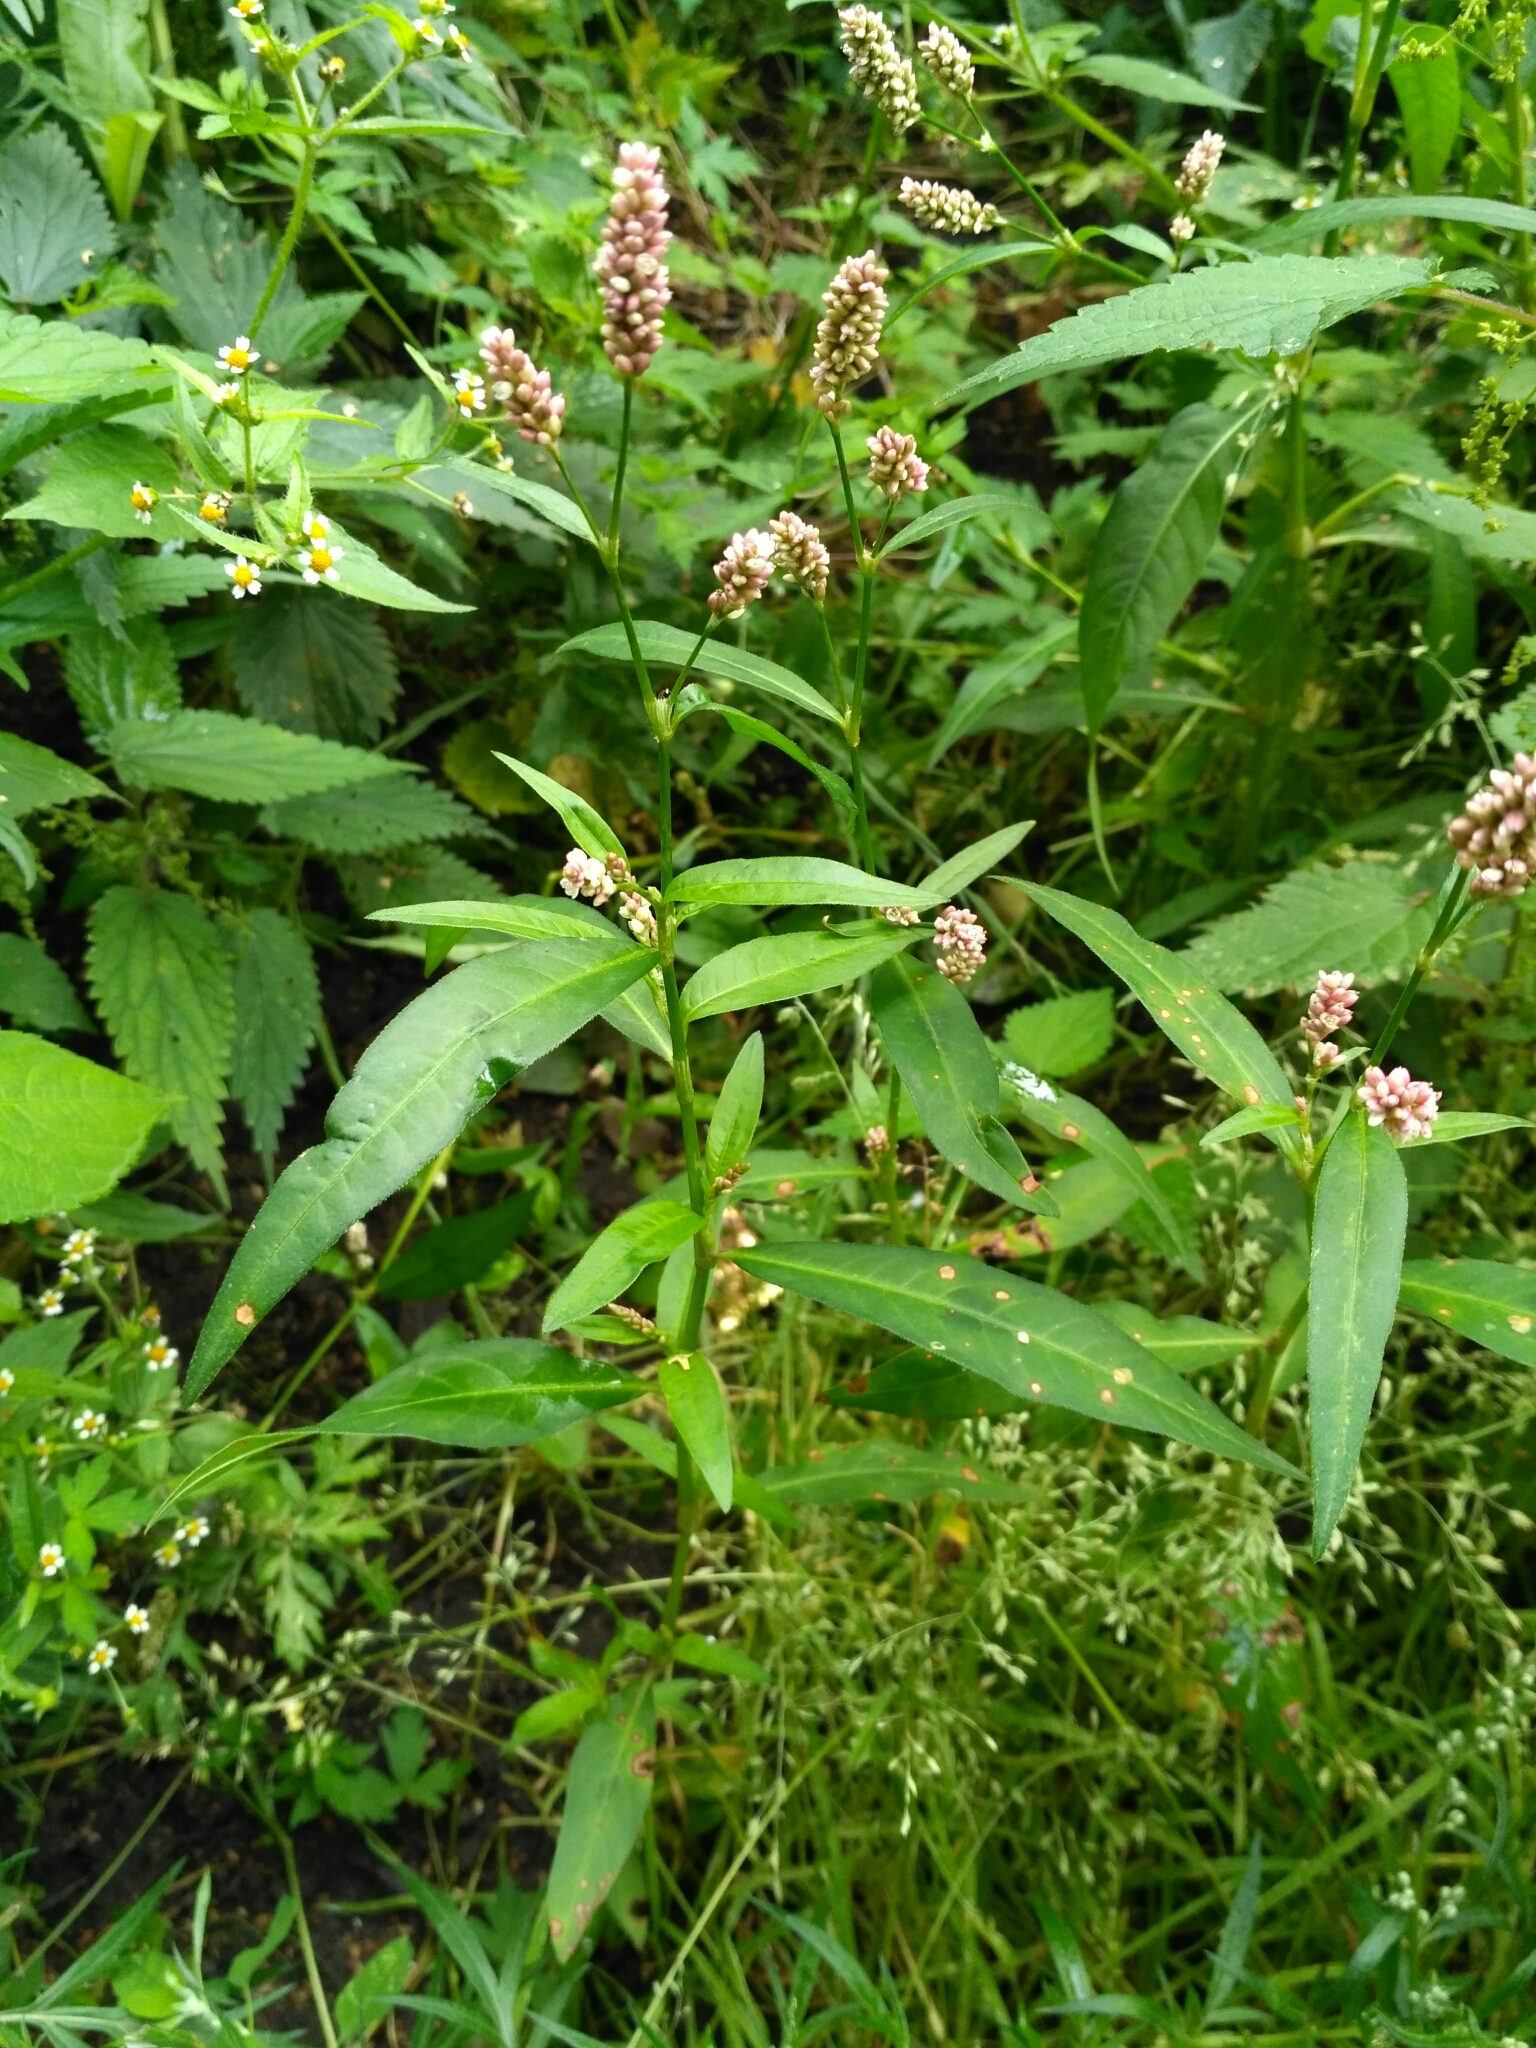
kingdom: Plantae
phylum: Tracheophyta
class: Magnoliopsida
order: Caryophyllales
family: Polygonaceae
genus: Persicaria
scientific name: Persicaria maculosa
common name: Redshank
